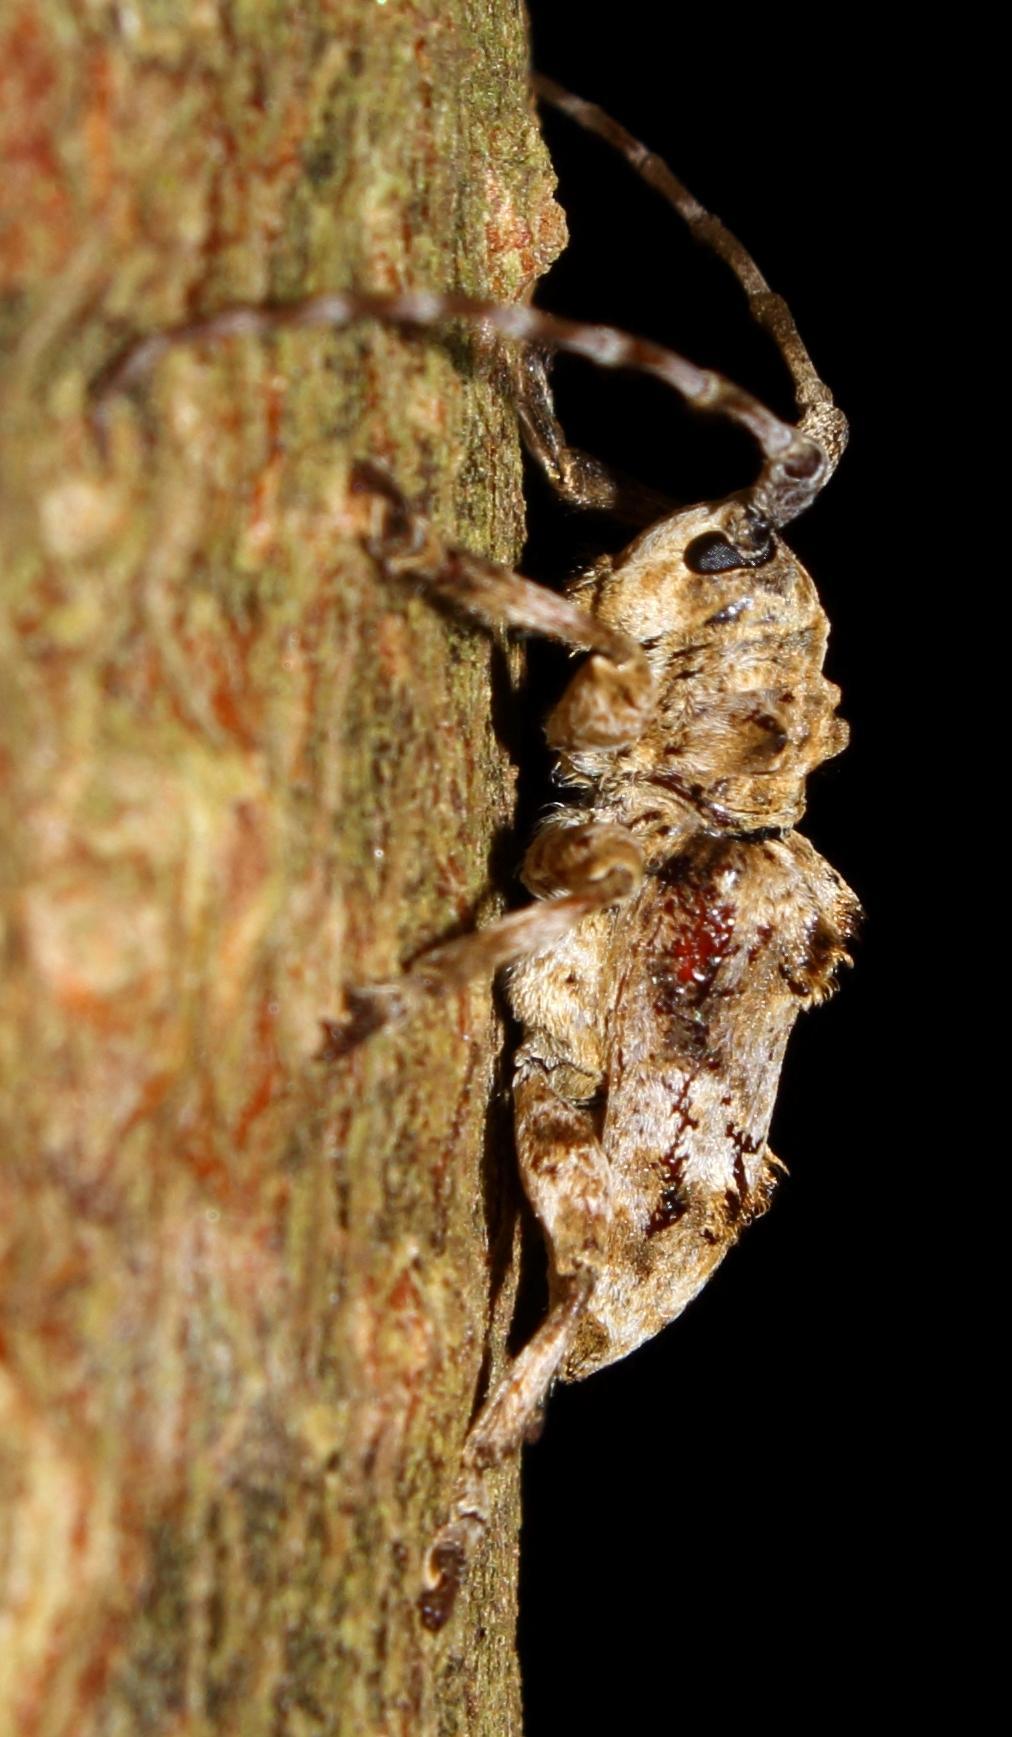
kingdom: Animalia
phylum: Arthropoda
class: Insecta
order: Coleoptera
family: Cerambycidae
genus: Idactus
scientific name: Idactus tridens
